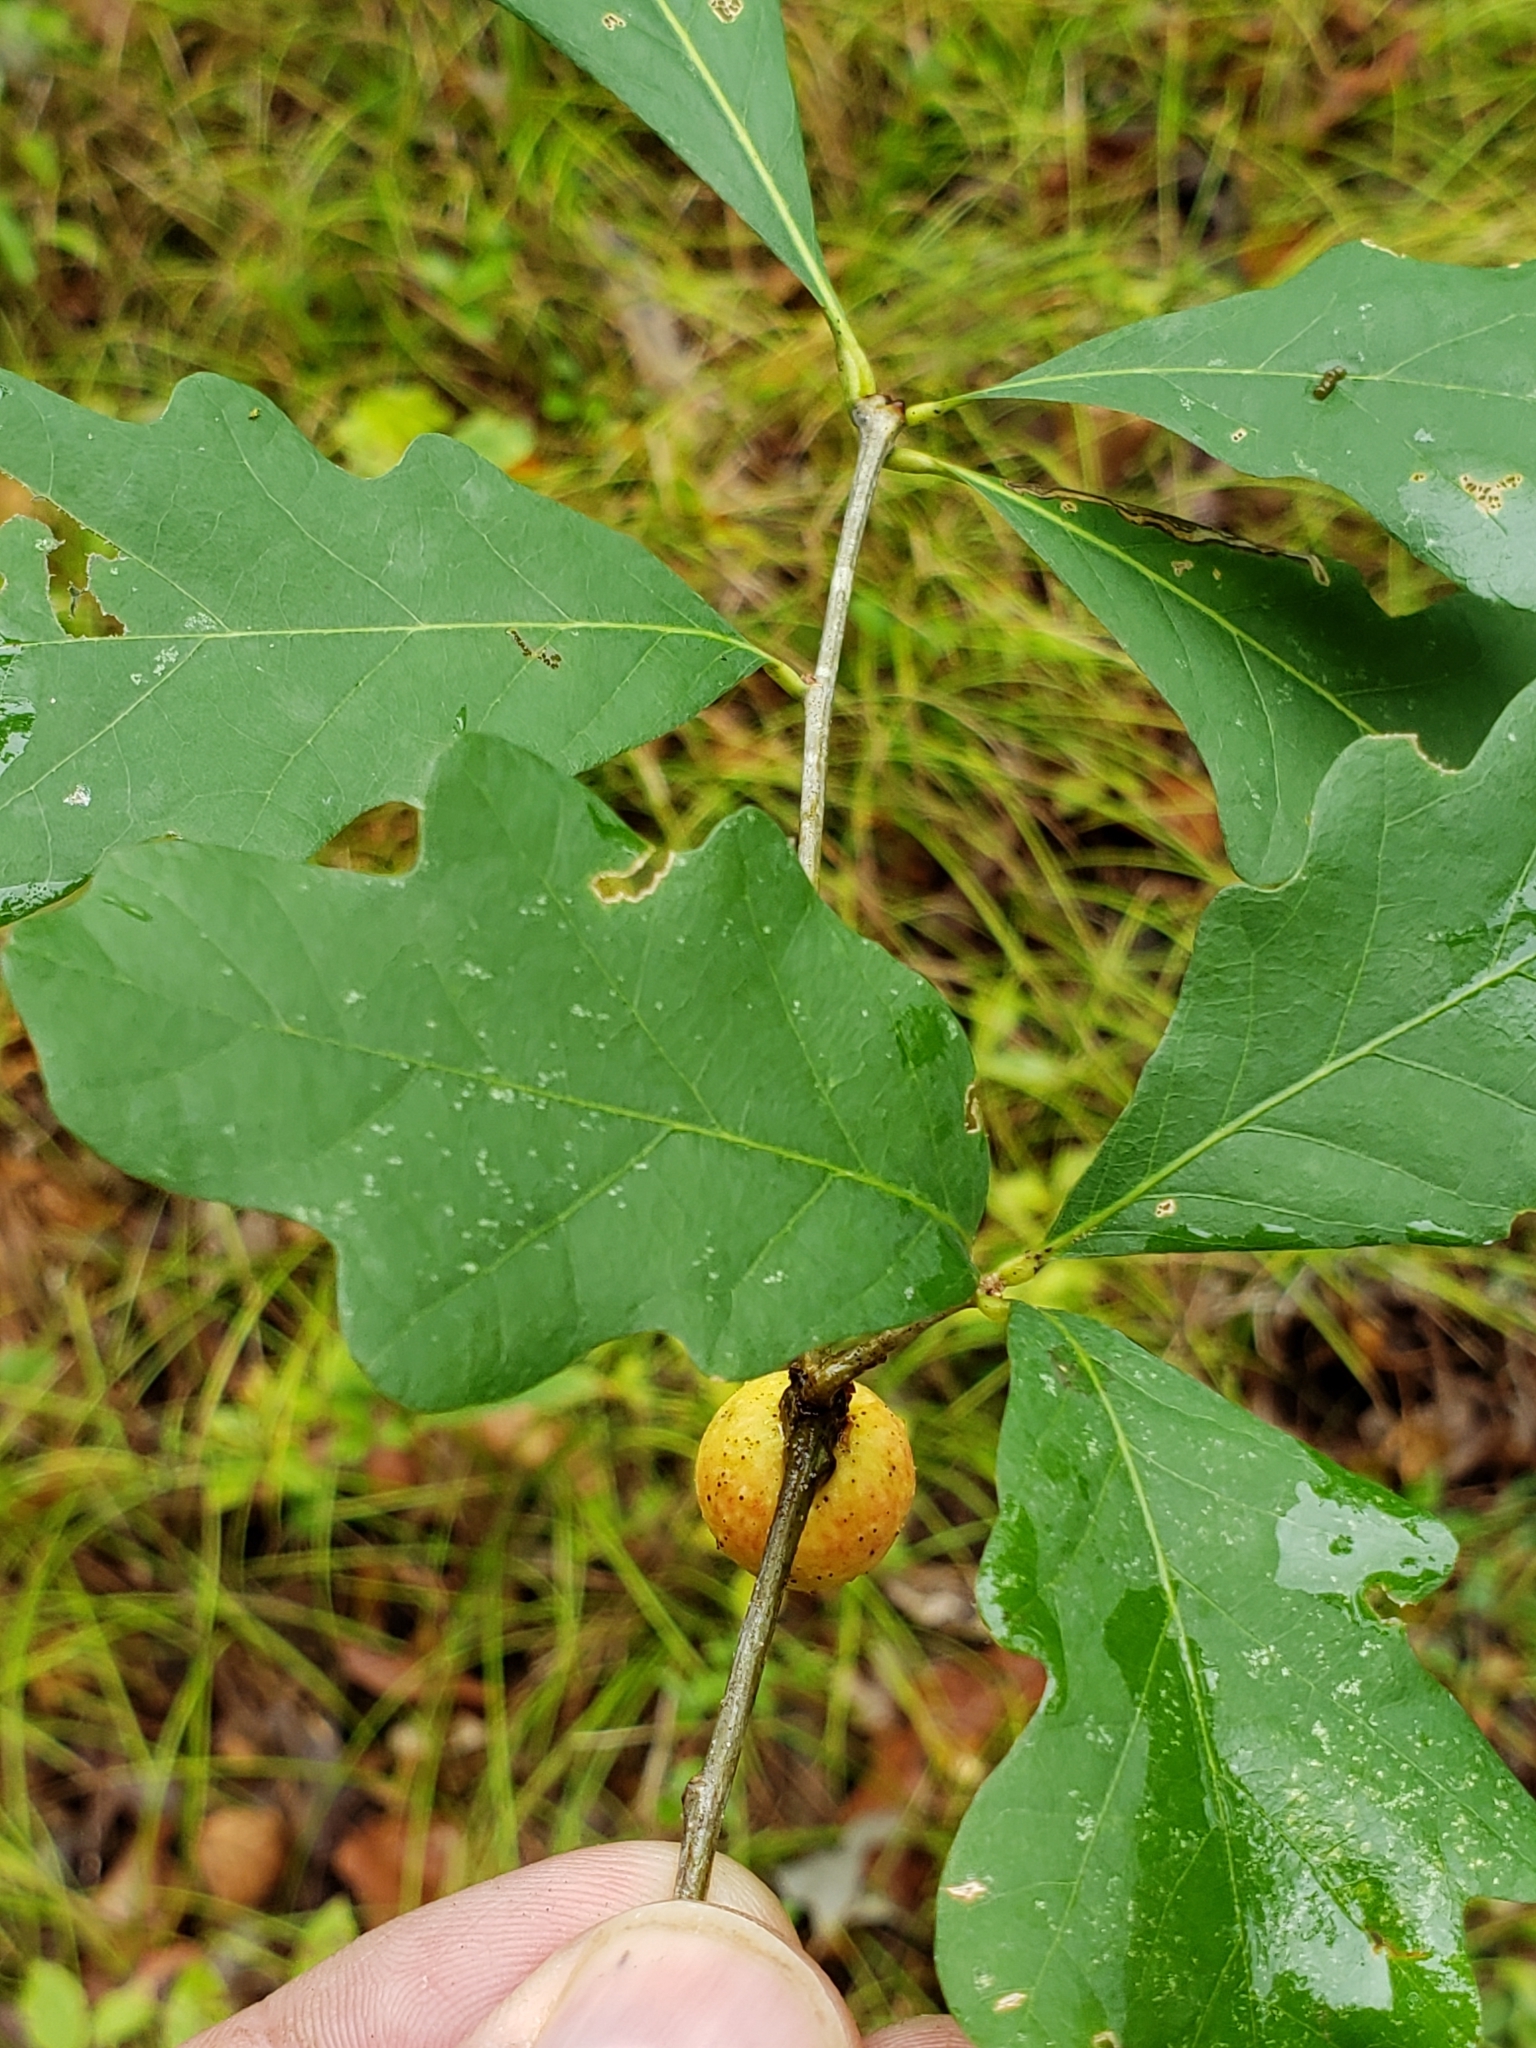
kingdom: Animalia
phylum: Arthropoda
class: Insecta
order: Hymenoptera
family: Cynipidae
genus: Disholcaspis
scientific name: Disholcaspis quercusglobulus
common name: Round bullet gall wasp
